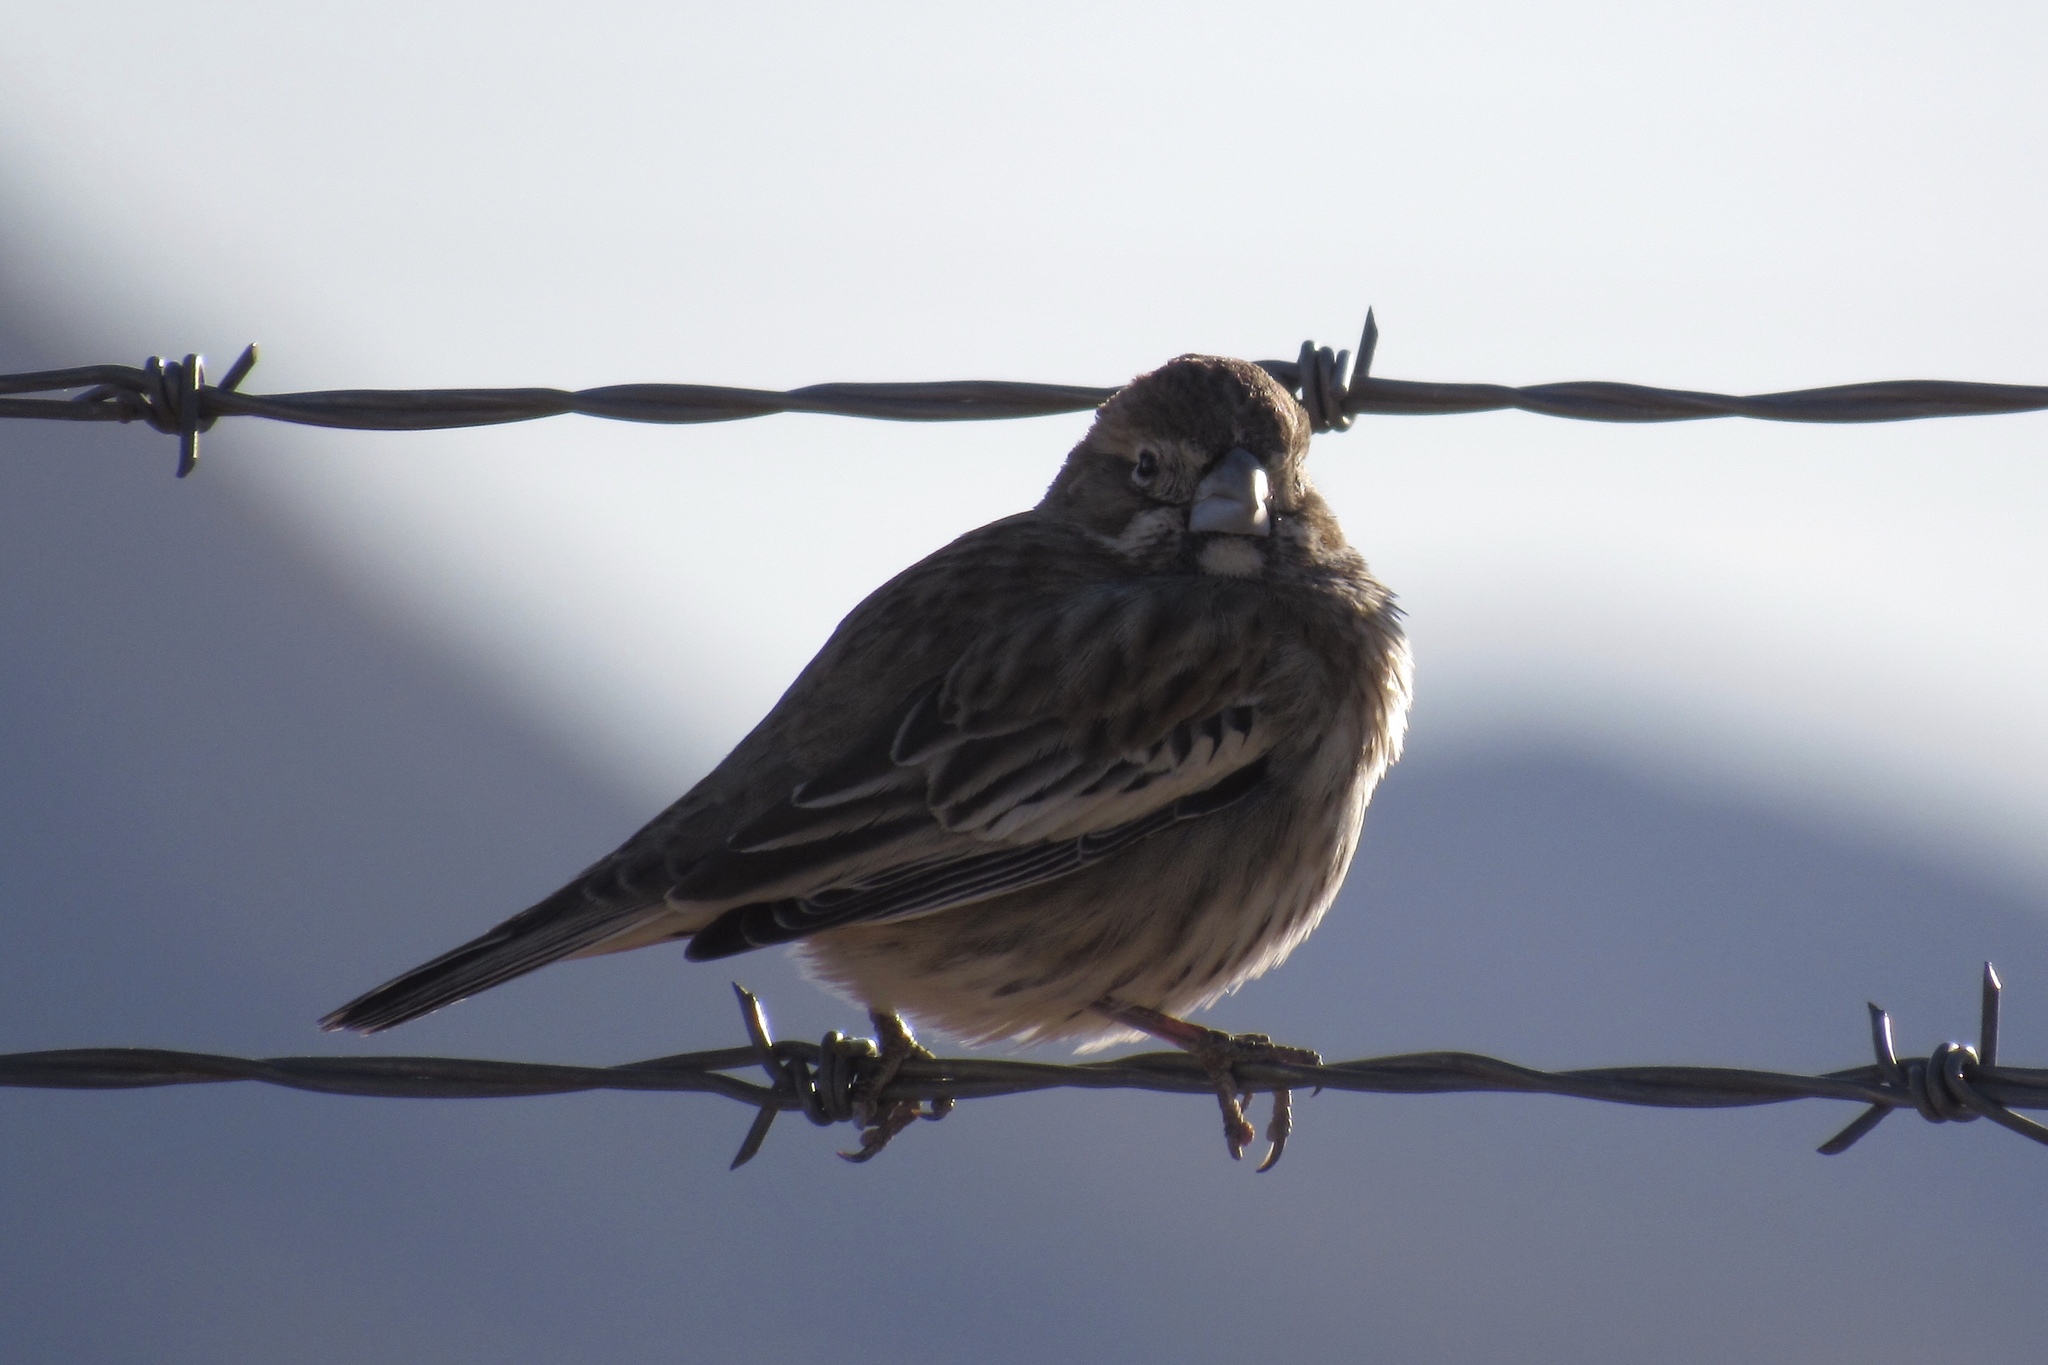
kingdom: Animalia
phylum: Chordata
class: Aves
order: Passeriformes
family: Passerellidae
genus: Calamospiza
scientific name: Calamospiza melanocorys
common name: Lark bunting
